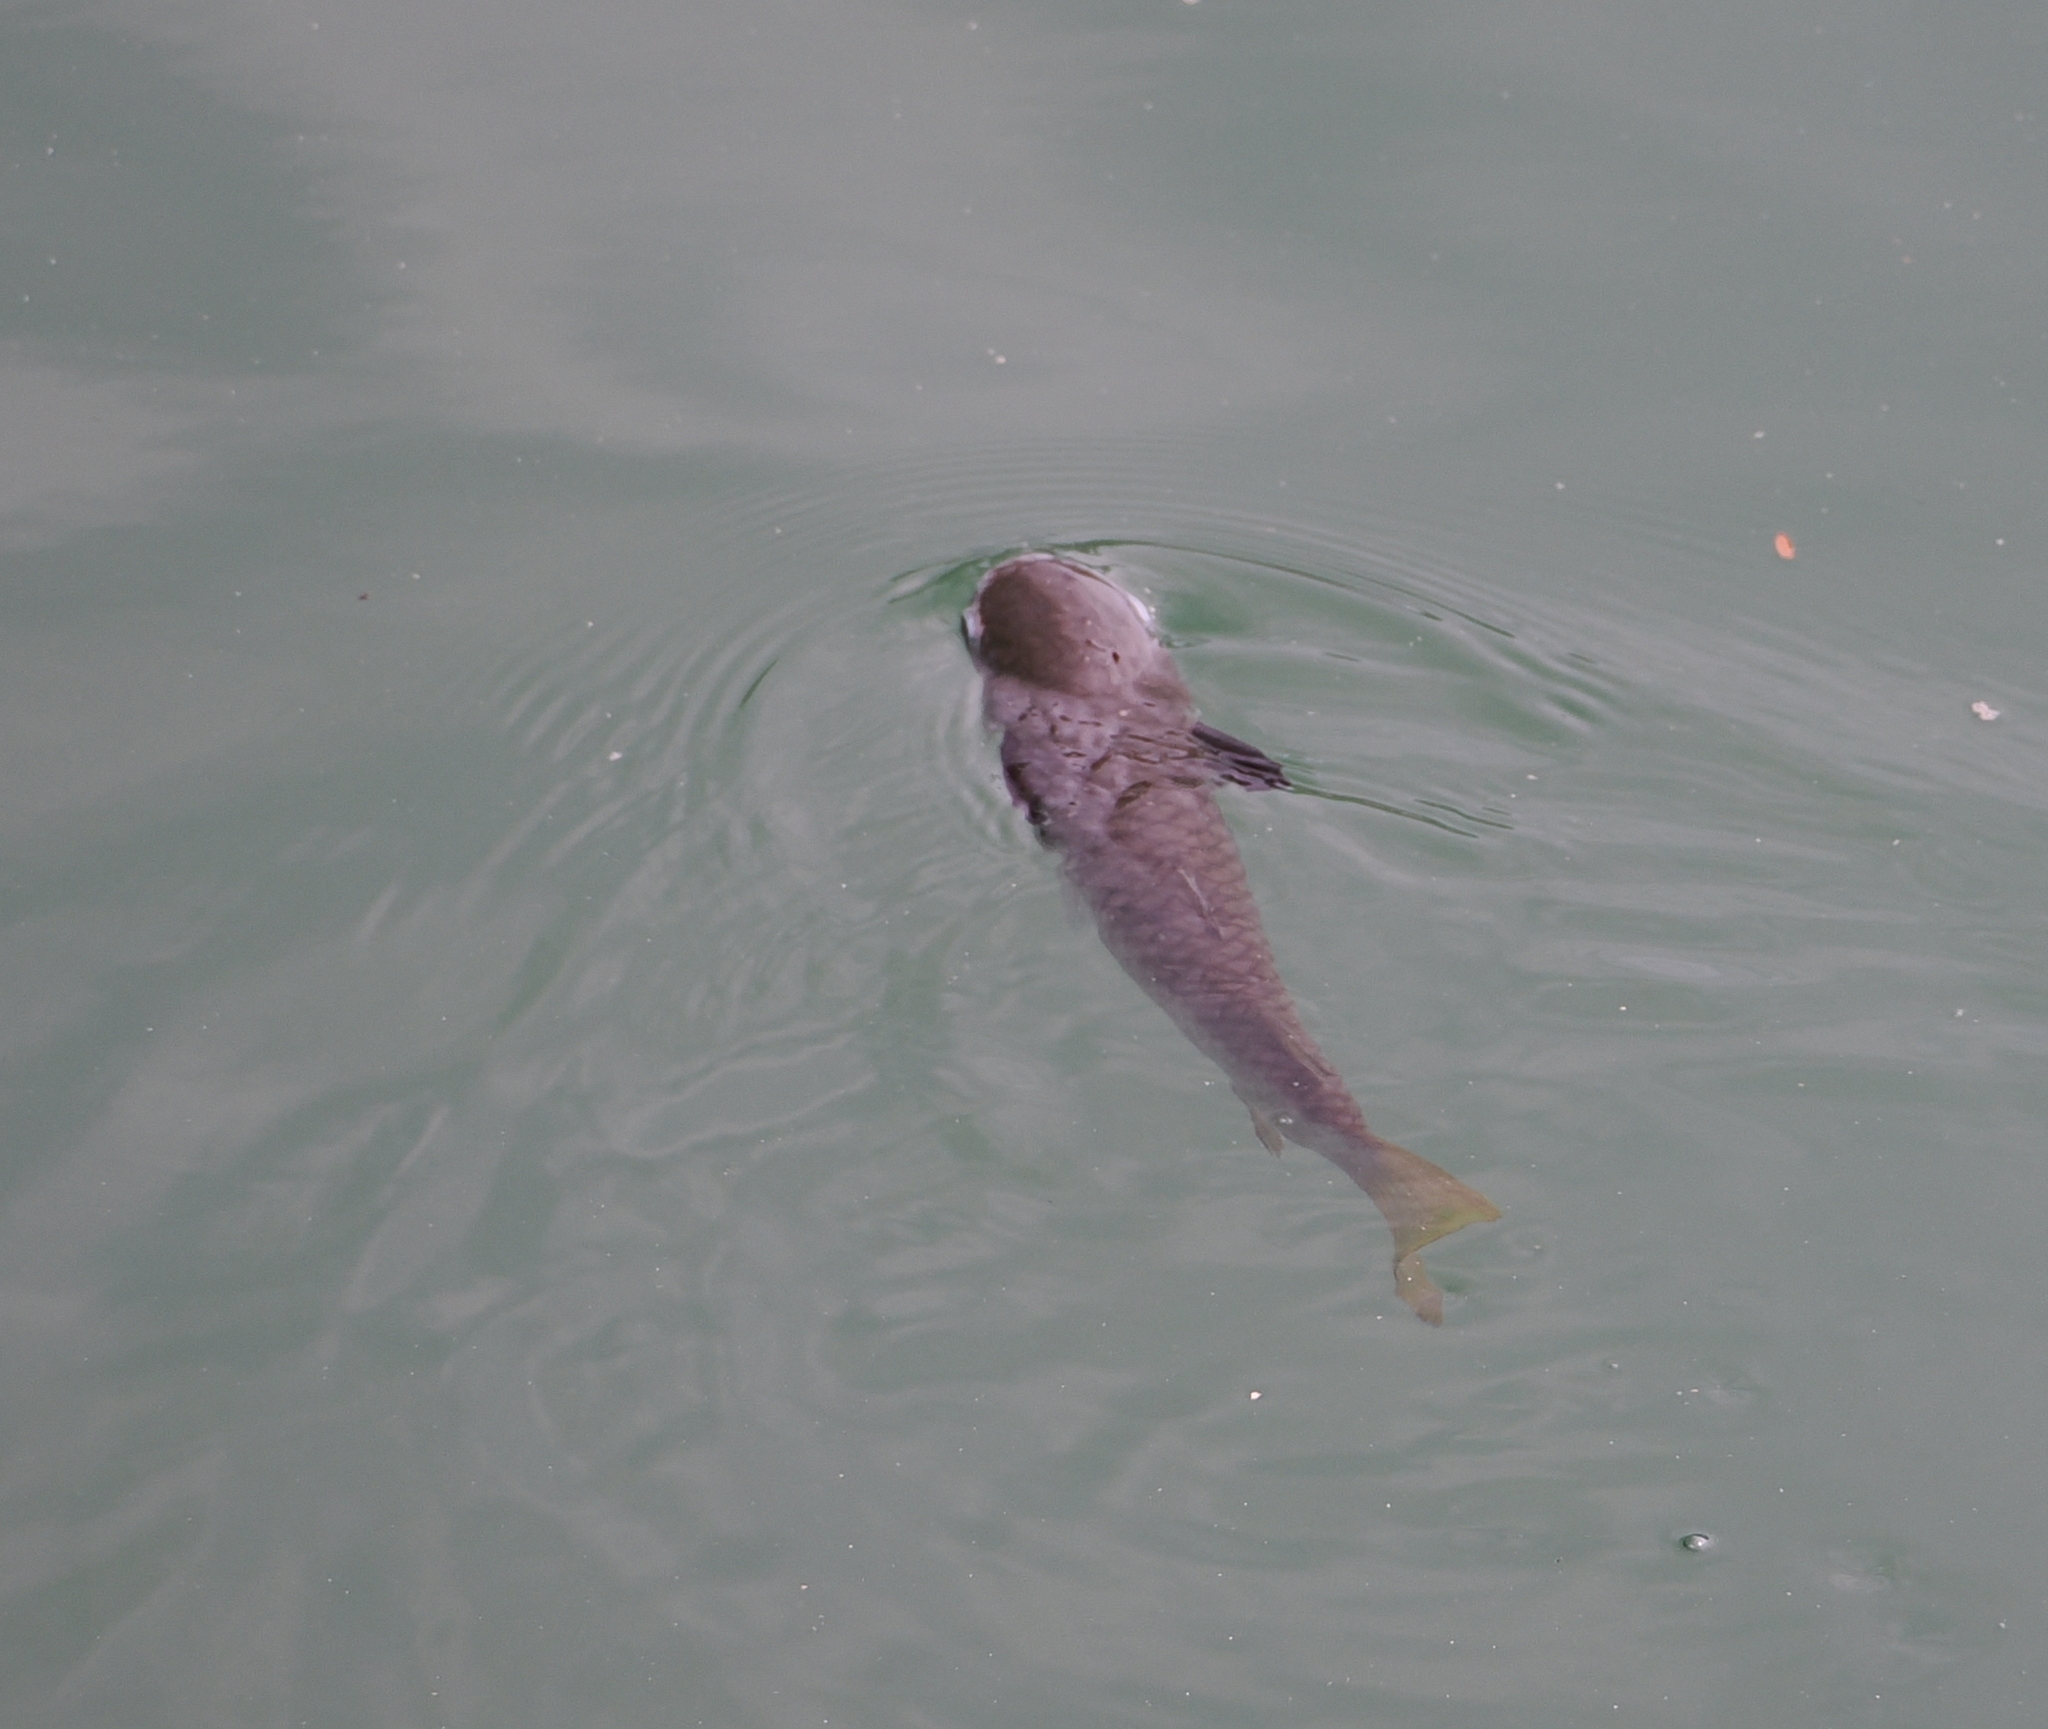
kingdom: Animalia
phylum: Chordata
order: Mugiliformes
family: Mugilidae
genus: Ellochelon
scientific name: Ellochelon vaigiensis
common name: Squaretail mullet
